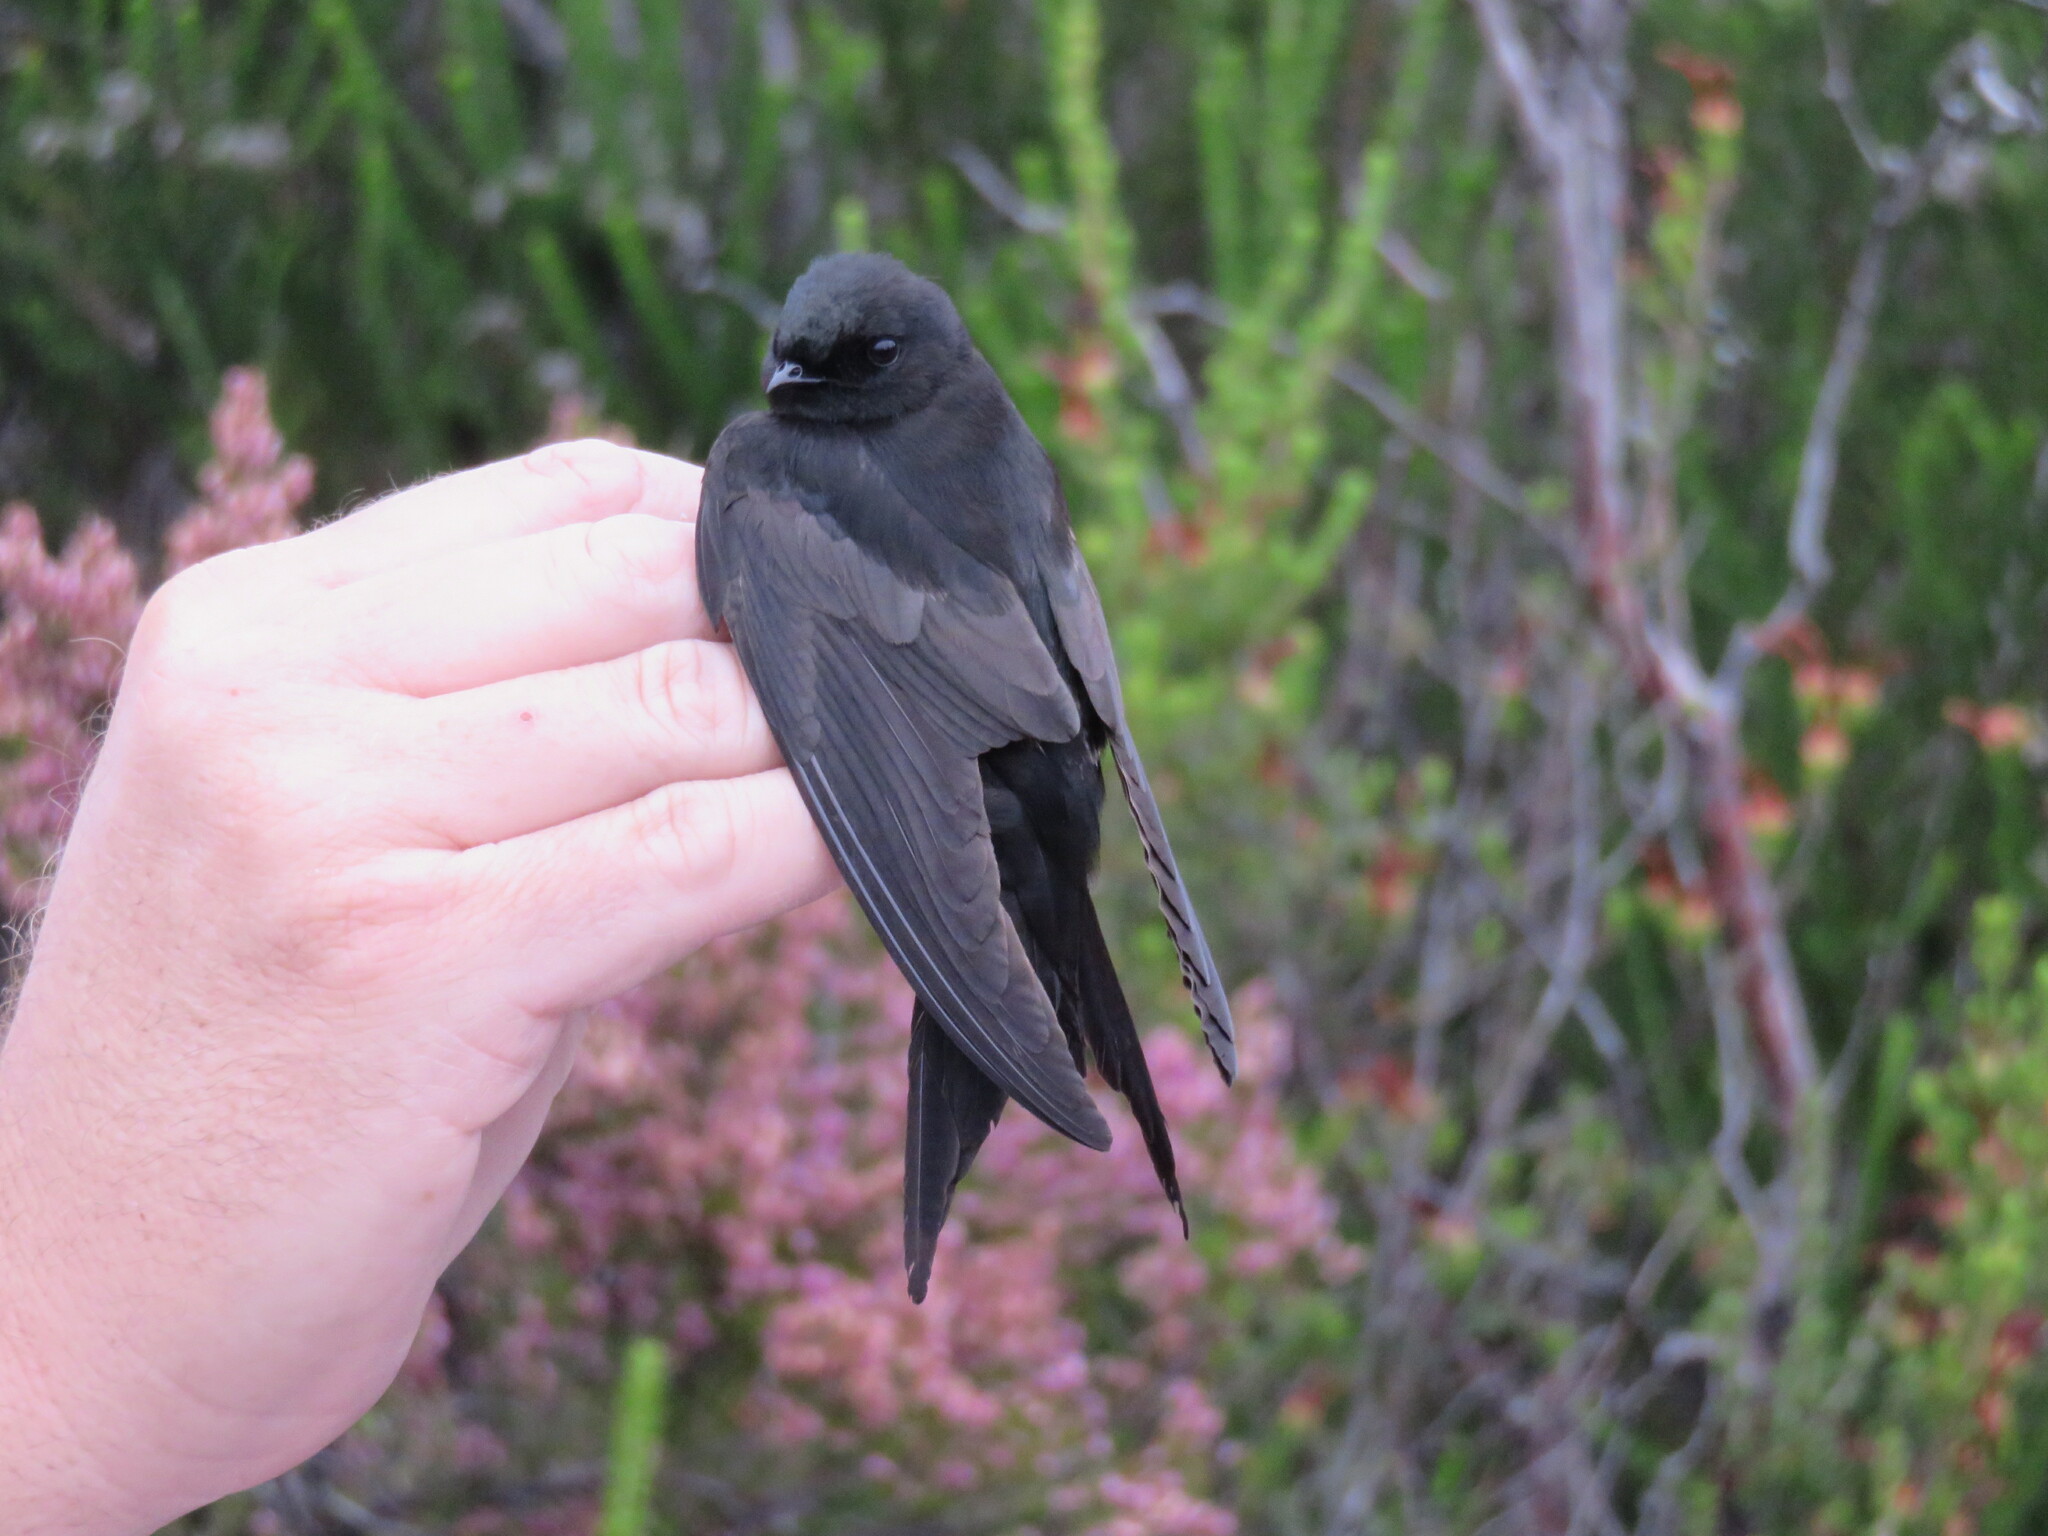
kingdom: Animalia
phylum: Chordata
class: Aves
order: Passeriformes
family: Hirundinidae
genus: Psalidoprocne
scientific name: Psalidoprocne pristoptera
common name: Black saw-wing
